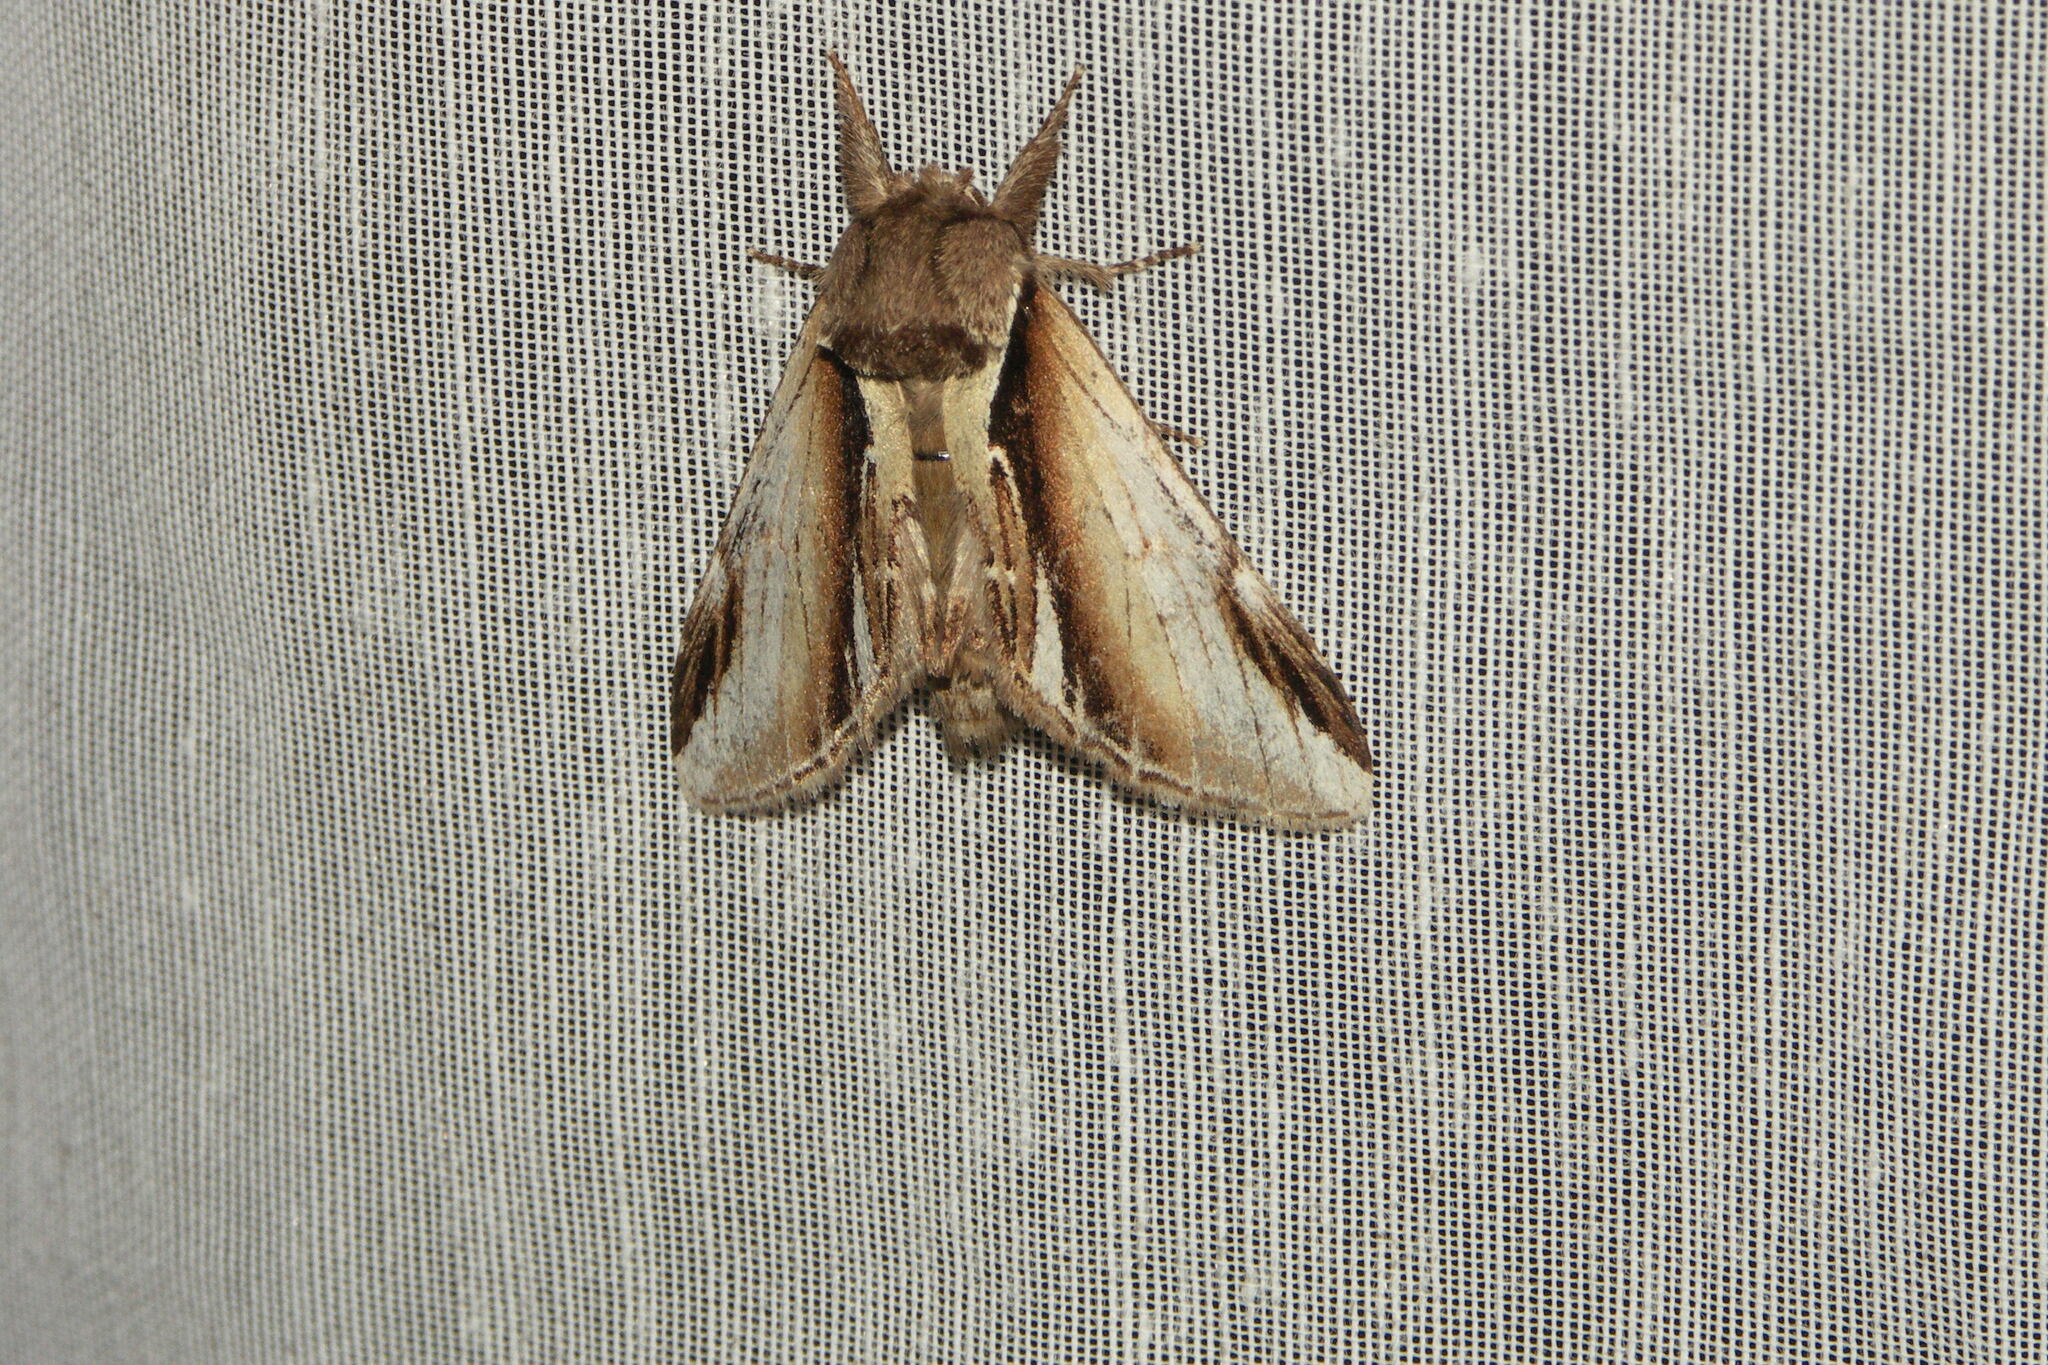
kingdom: Animalia
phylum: Arthropoda
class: Insecta
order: Lepidoptera
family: Notodontidae
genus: Pheosia
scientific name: Pheosia gnoma
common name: Lesser swallow prominent
